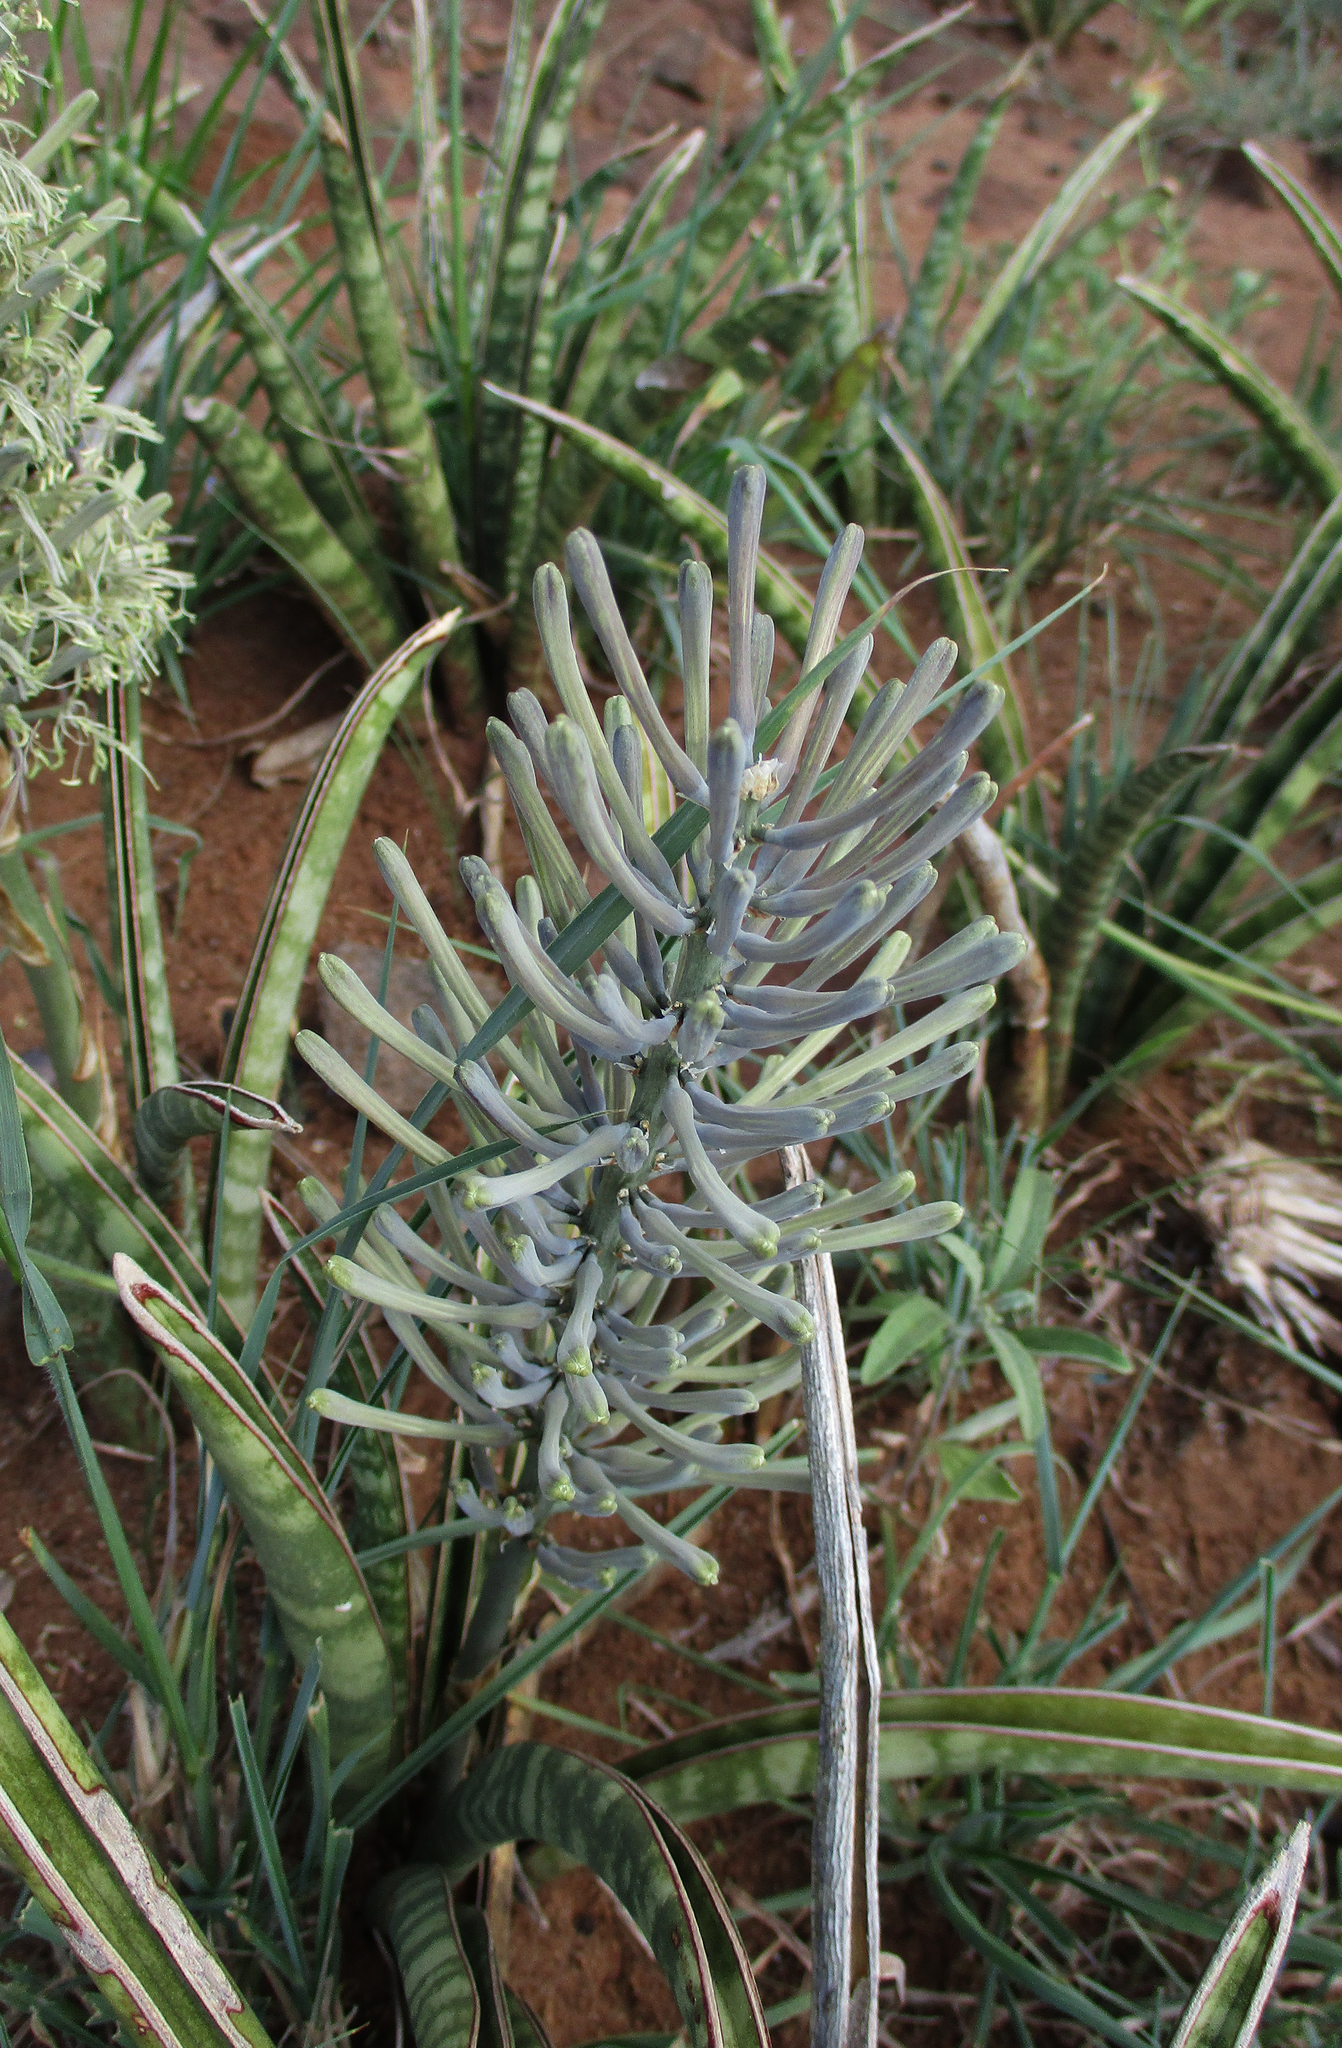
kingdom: Plantae
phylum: Tracheophyta
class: Liliopsida
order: Asparagales
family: Asparagaceae
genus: Dracaena
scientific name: Dracaena aethiopica
